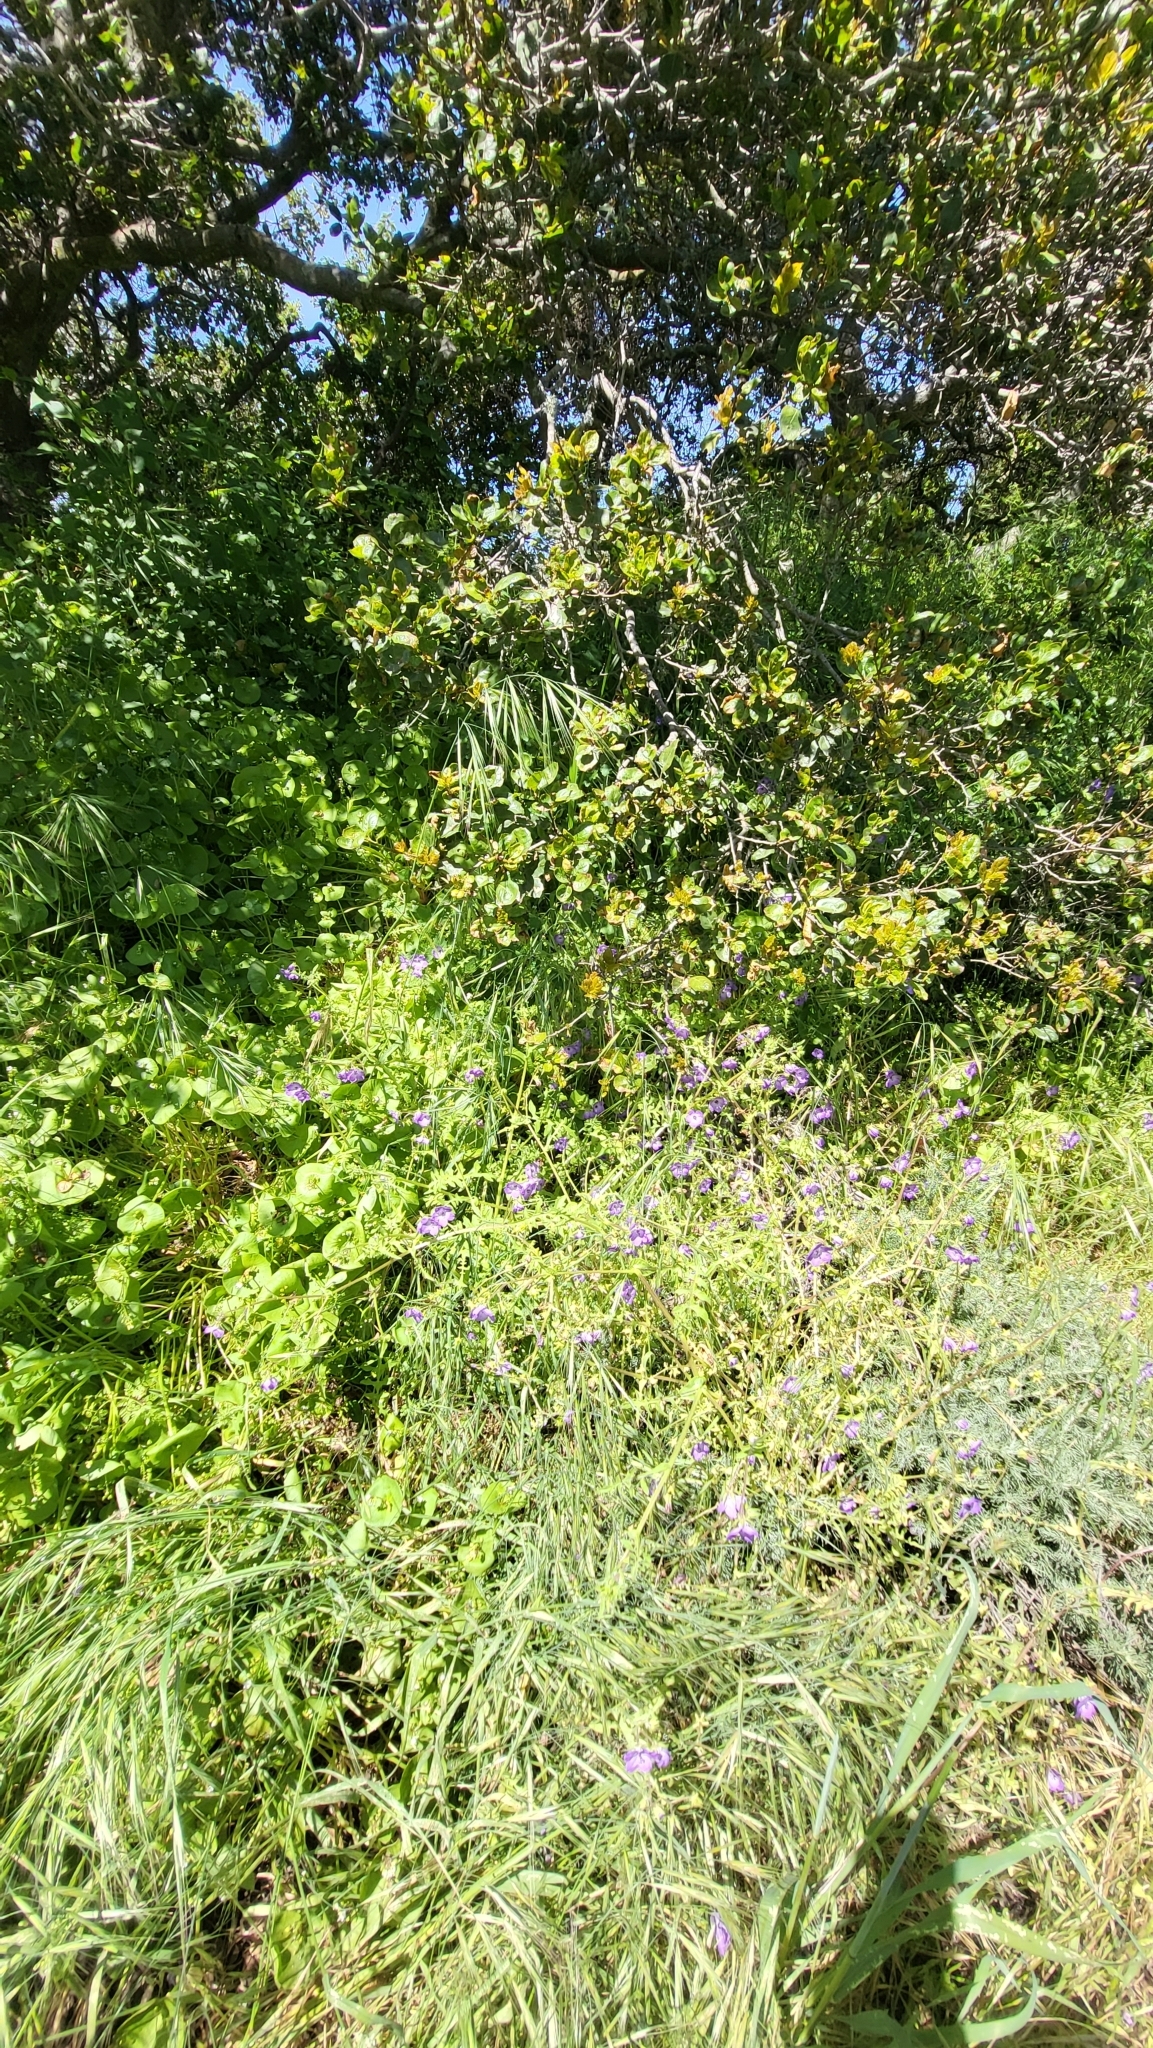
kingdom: Plantae
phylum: Tracheophyta
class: Magnoliopsida
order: Boraginales
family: Hydrophyllaceae
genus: Pholistoma
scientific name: Pholistoma auritum
